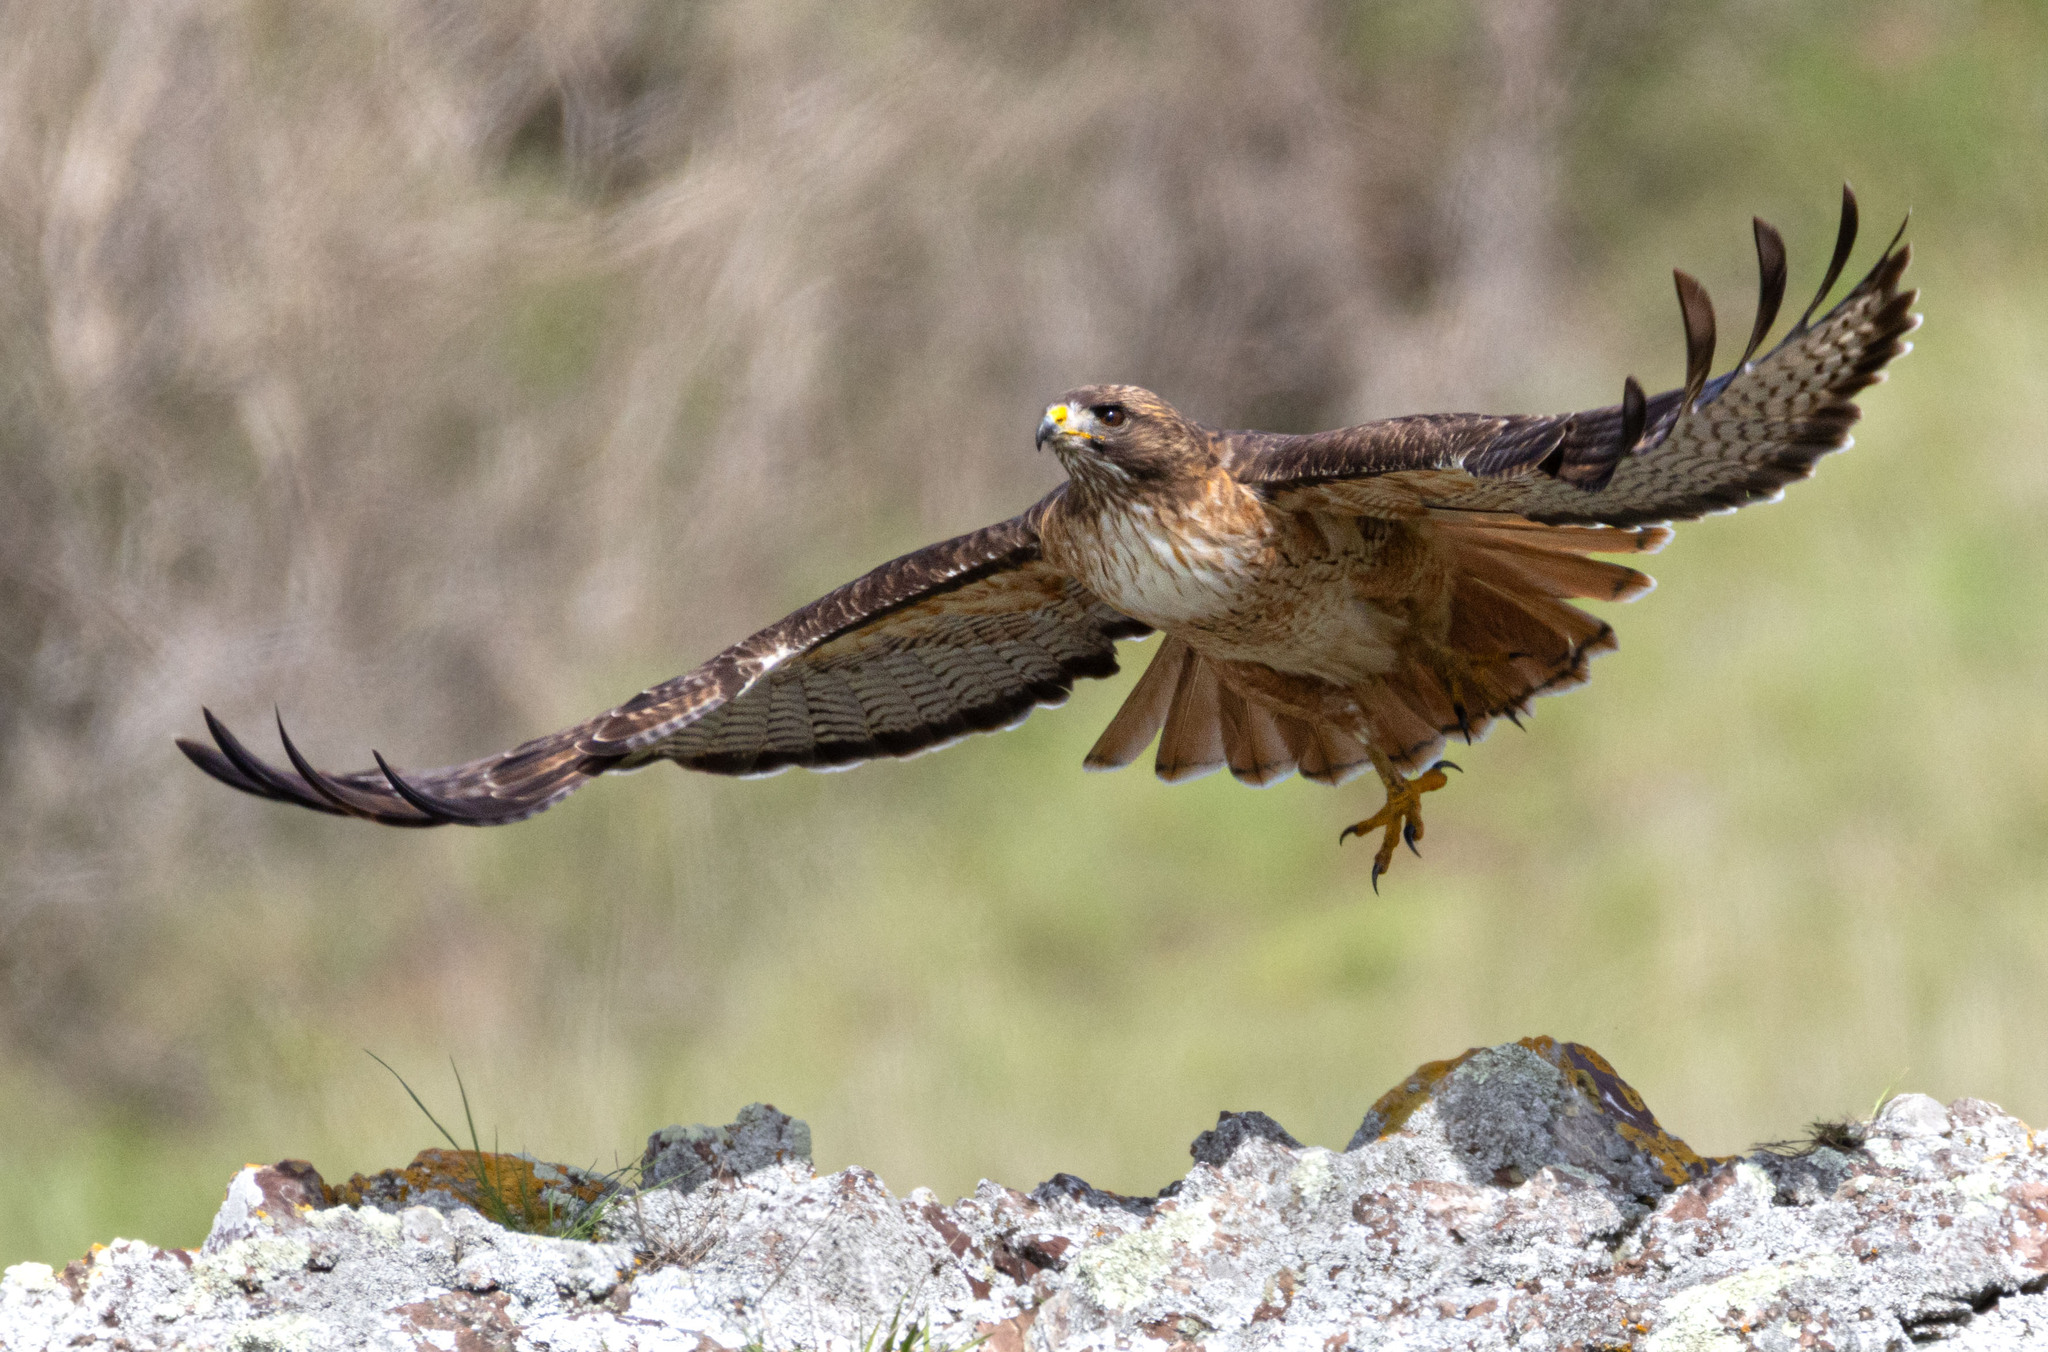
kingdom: Animalia
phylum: Chordata
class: Aves
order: Accipitriformes
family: Accipitridae
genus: Buteo
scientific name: Buteo jamaicensis
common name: Red-tailed hawk
